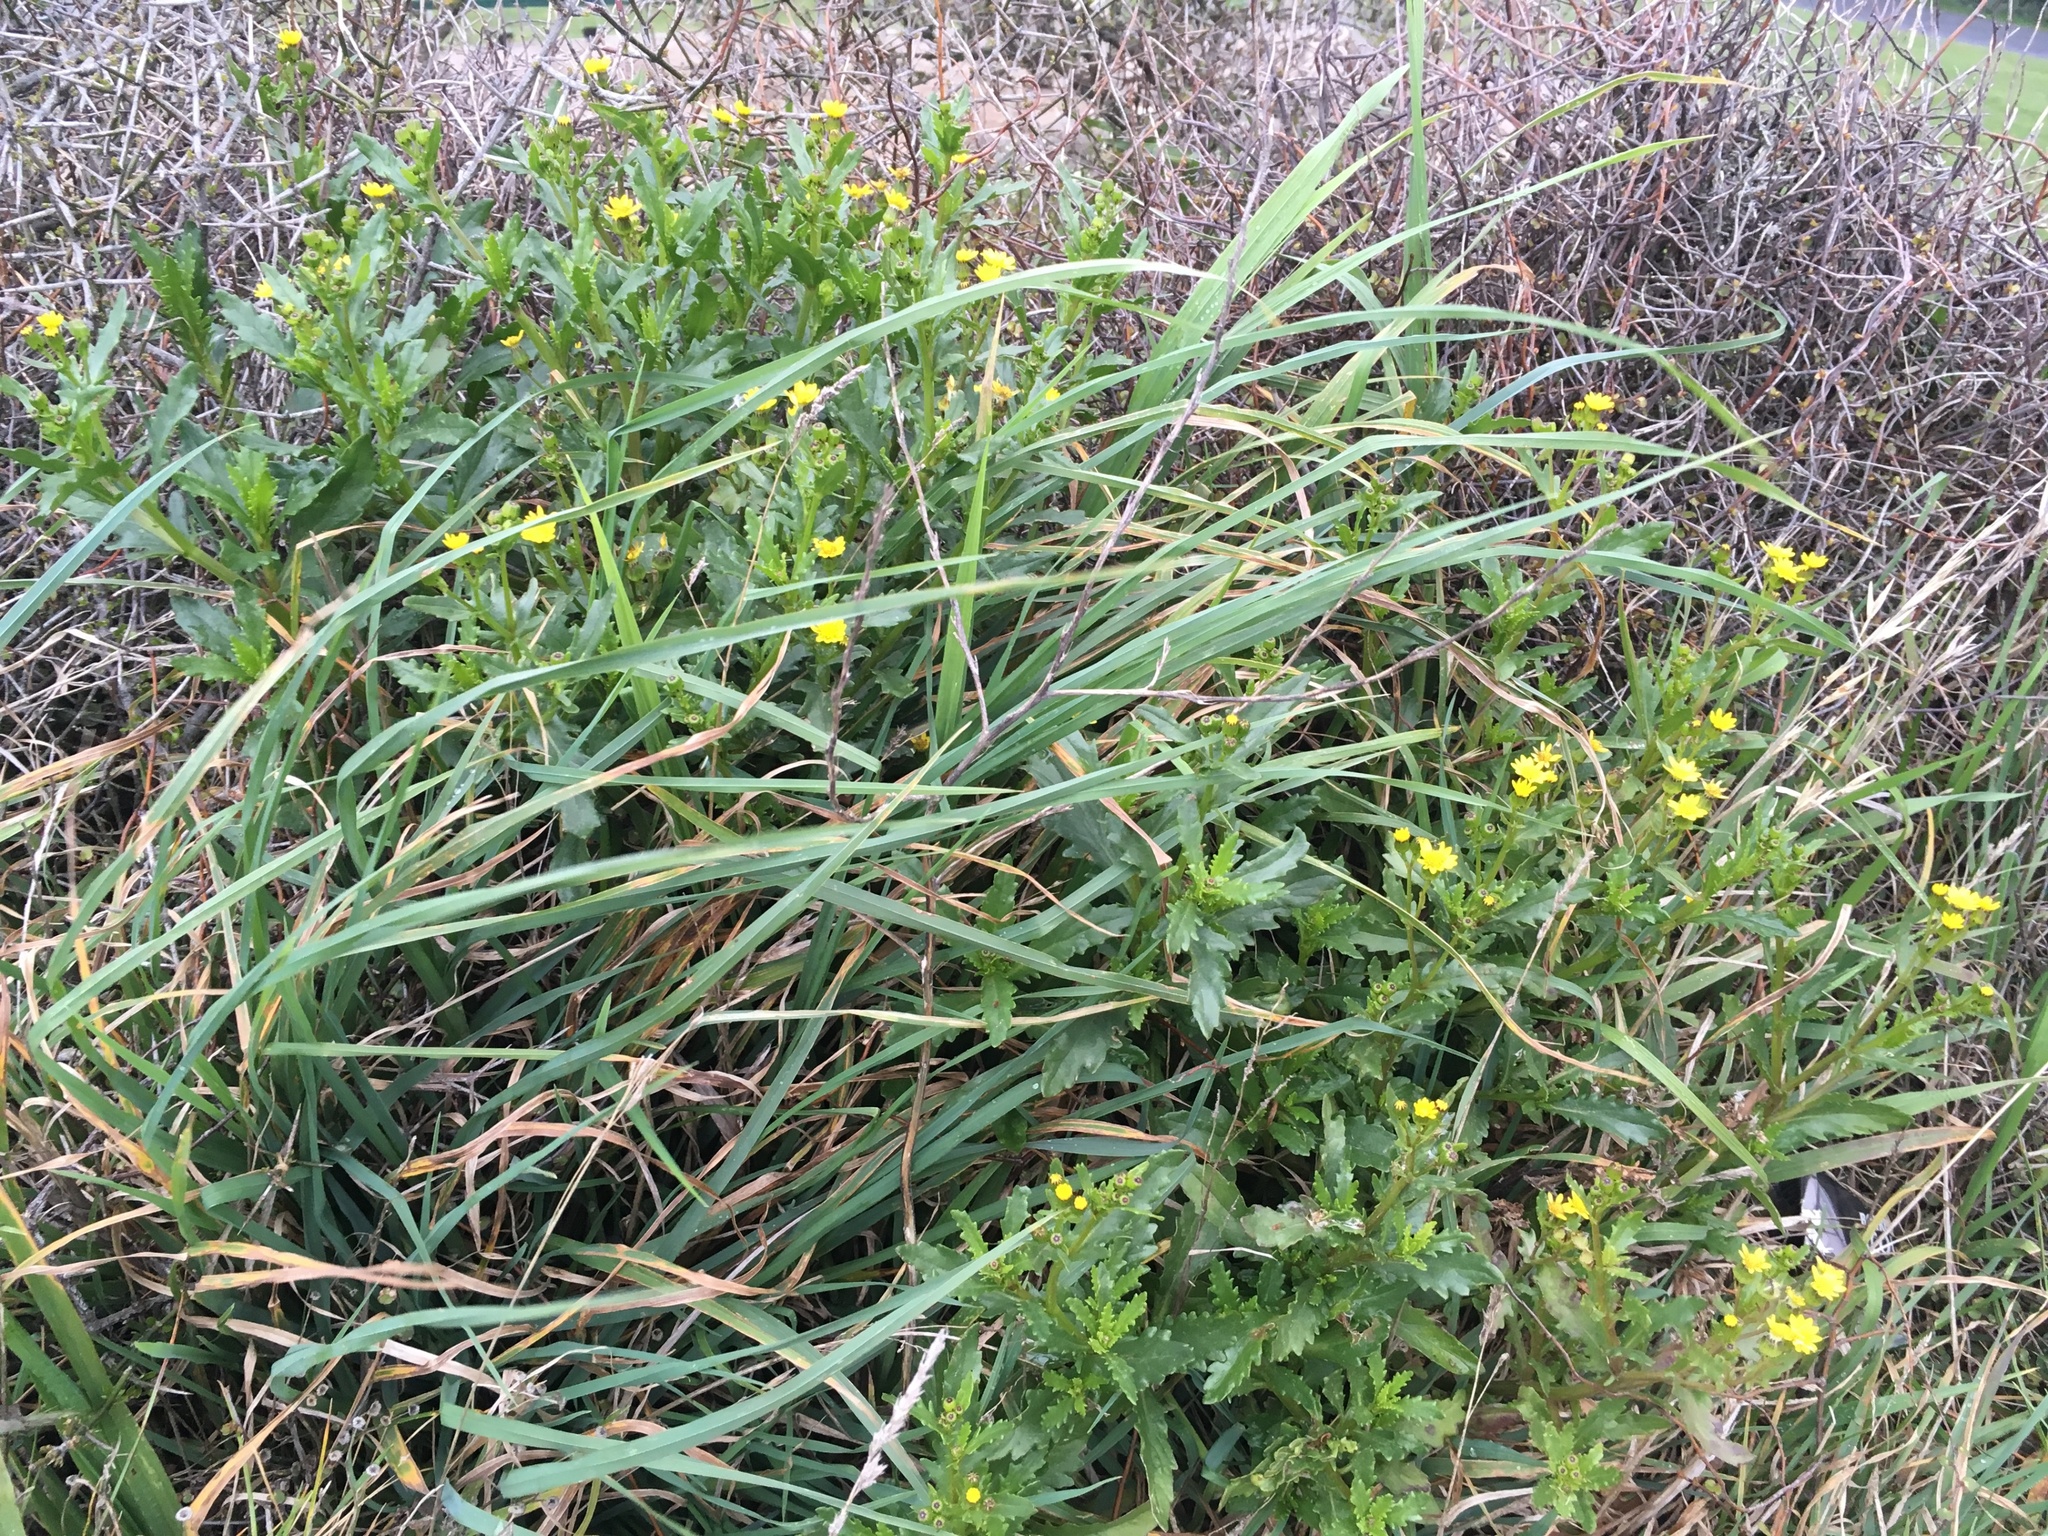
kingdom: Plantae
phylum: Tracheophyta
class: Magnoliopsida
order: Asterales
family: Asteraceae
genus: Senecio
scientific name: Senecio matatini
